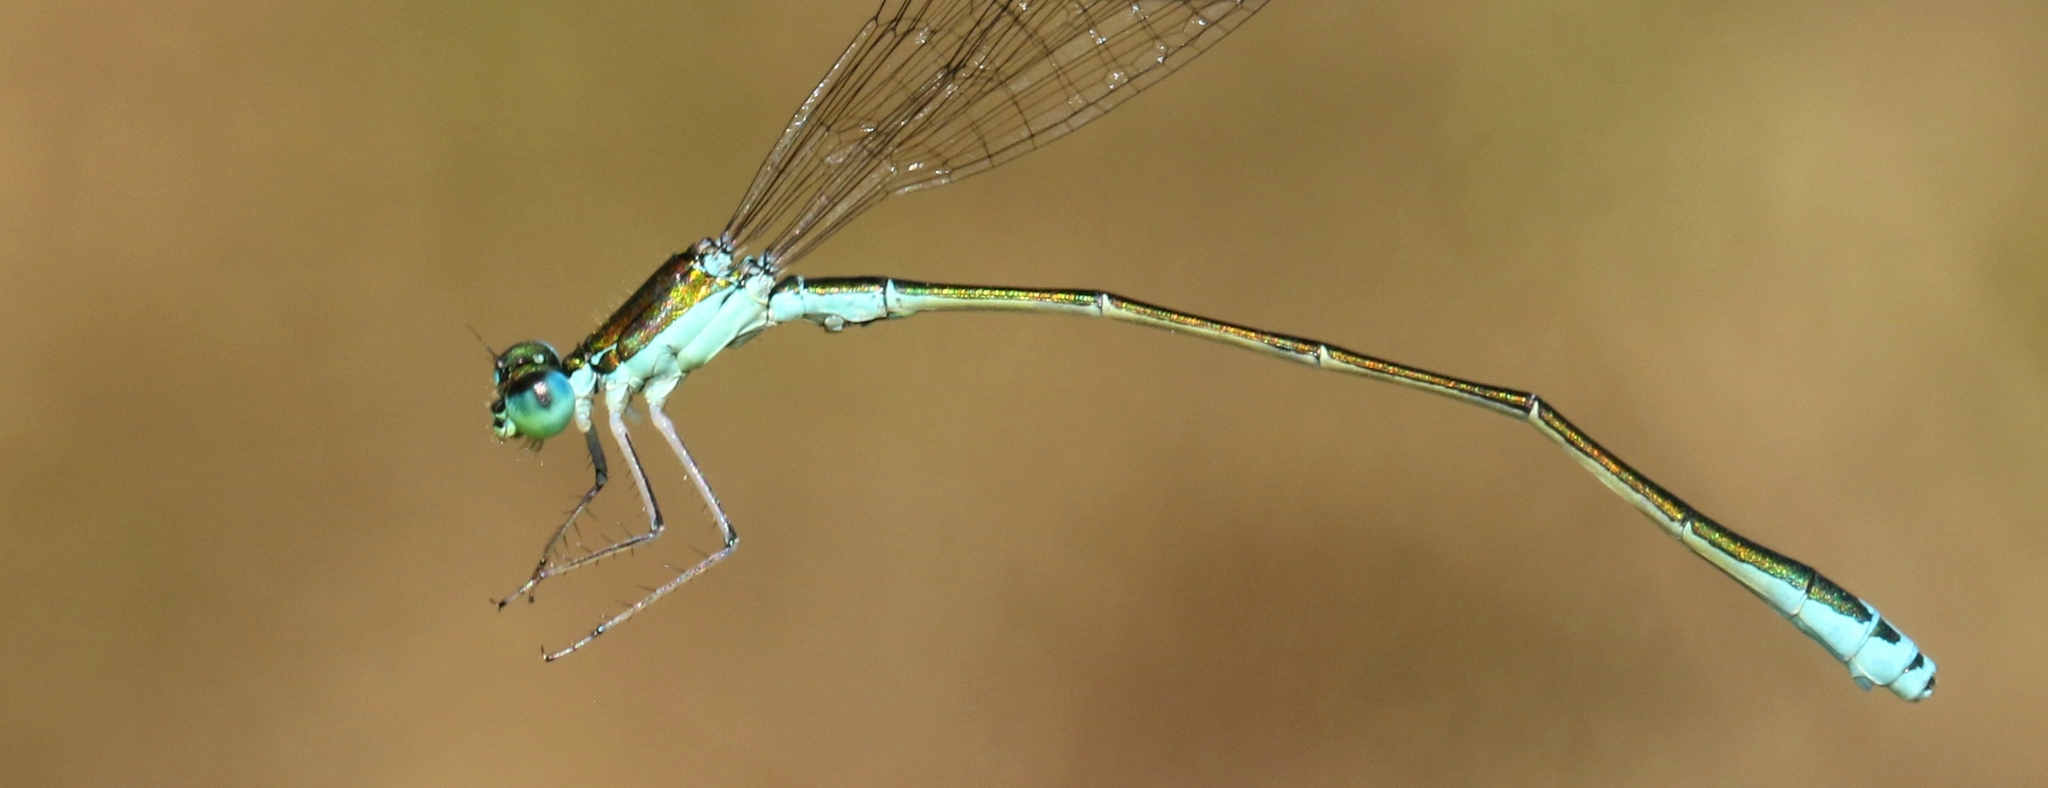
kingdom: Animalia
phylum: Arthropoda
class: Insecta
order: Odonata
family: Coenagrionidae
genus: Nehalennia
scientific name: Nehalennia irene
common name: Sedge sprite
